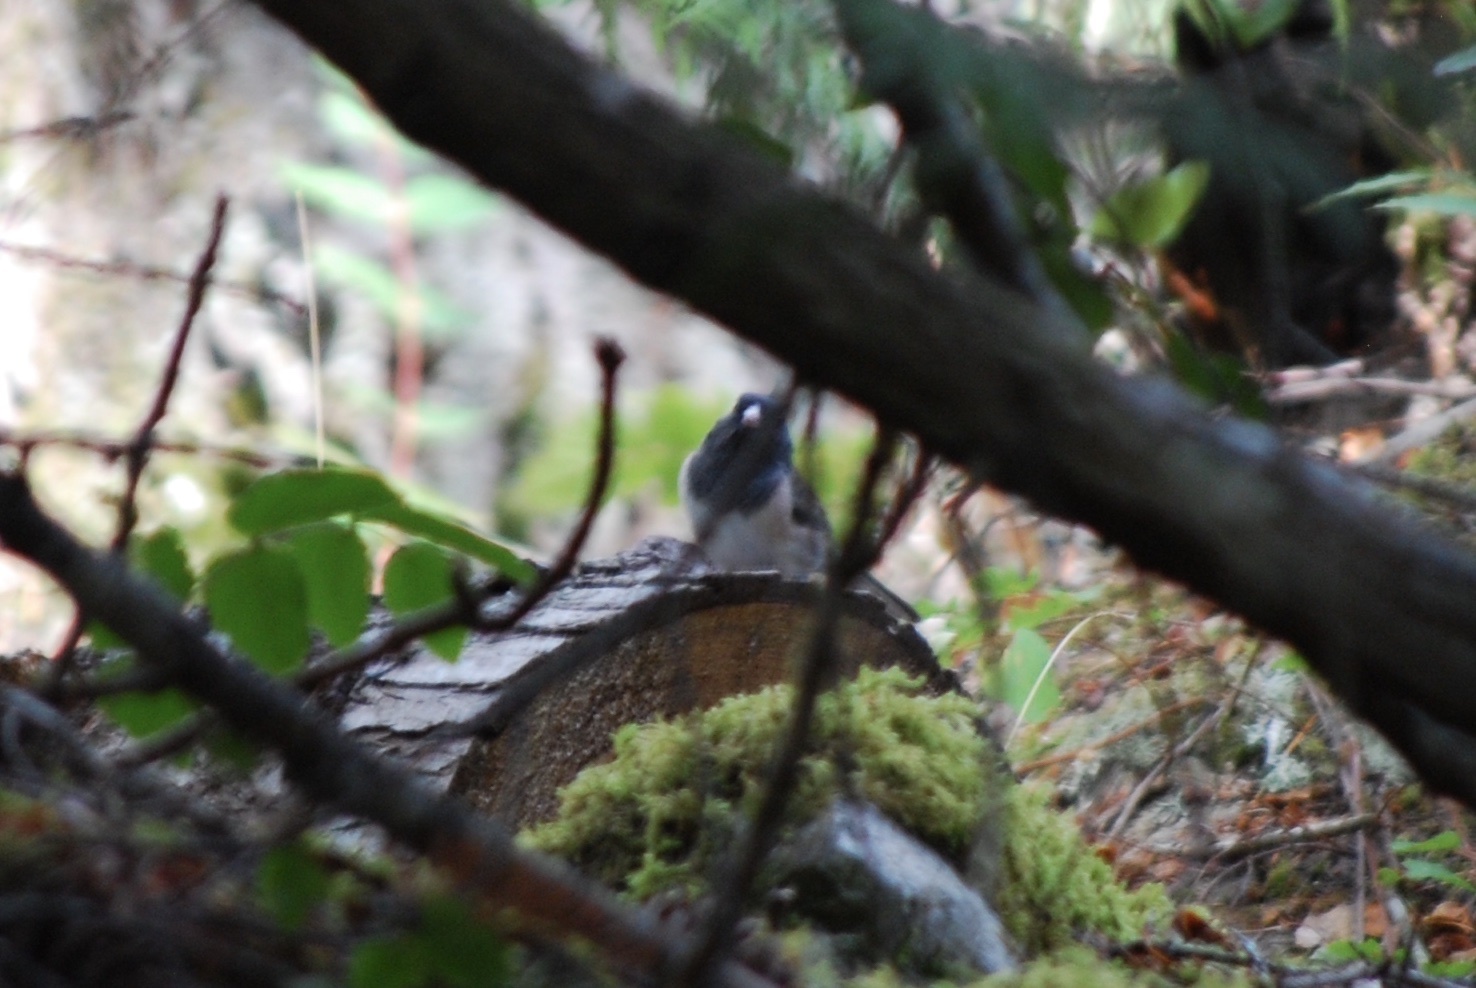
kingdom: Animalia
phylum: Chordata
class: Aves
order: Passeriformes
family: Passerellidae
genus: Junco
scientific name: Junco hyemalis
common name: Dark-eyed junco
